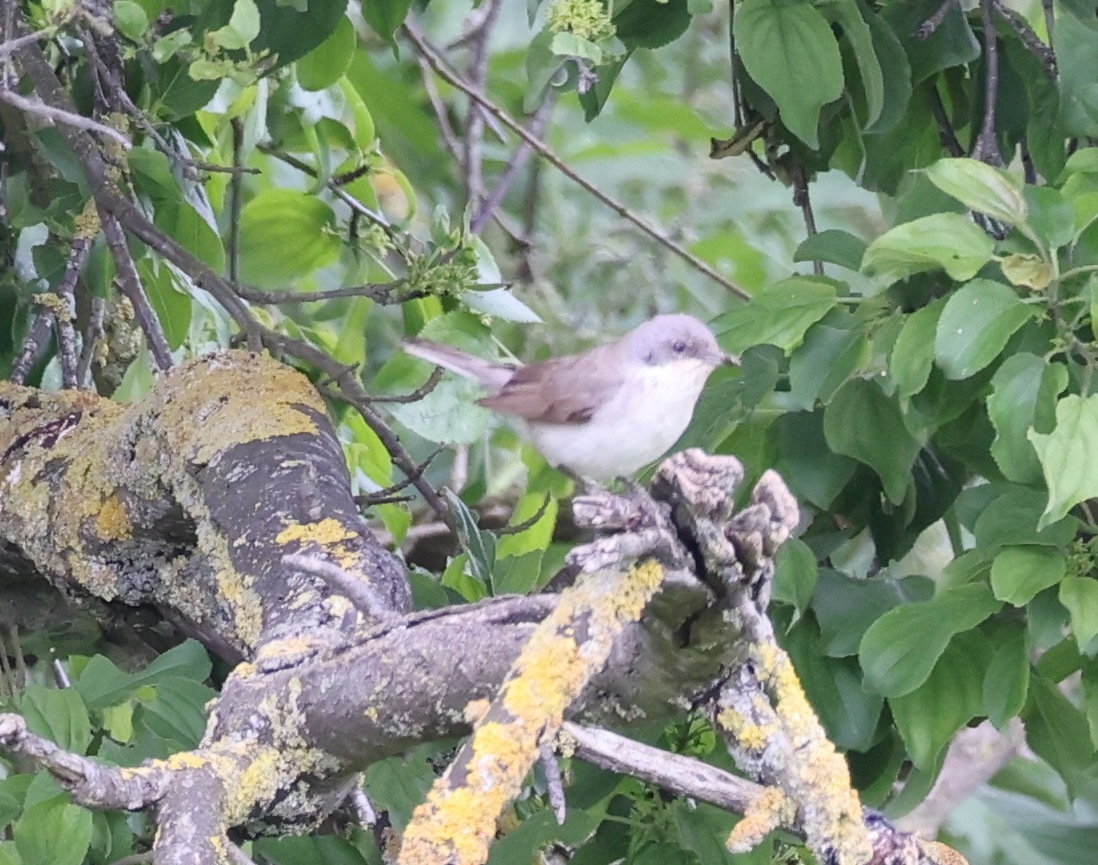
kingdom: Animalia
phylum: Chordata
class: Aves
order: Passeriformes
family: Sylviidae
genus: Sylvia
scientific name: Sylvia curruca
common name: Lesser whitethroat
